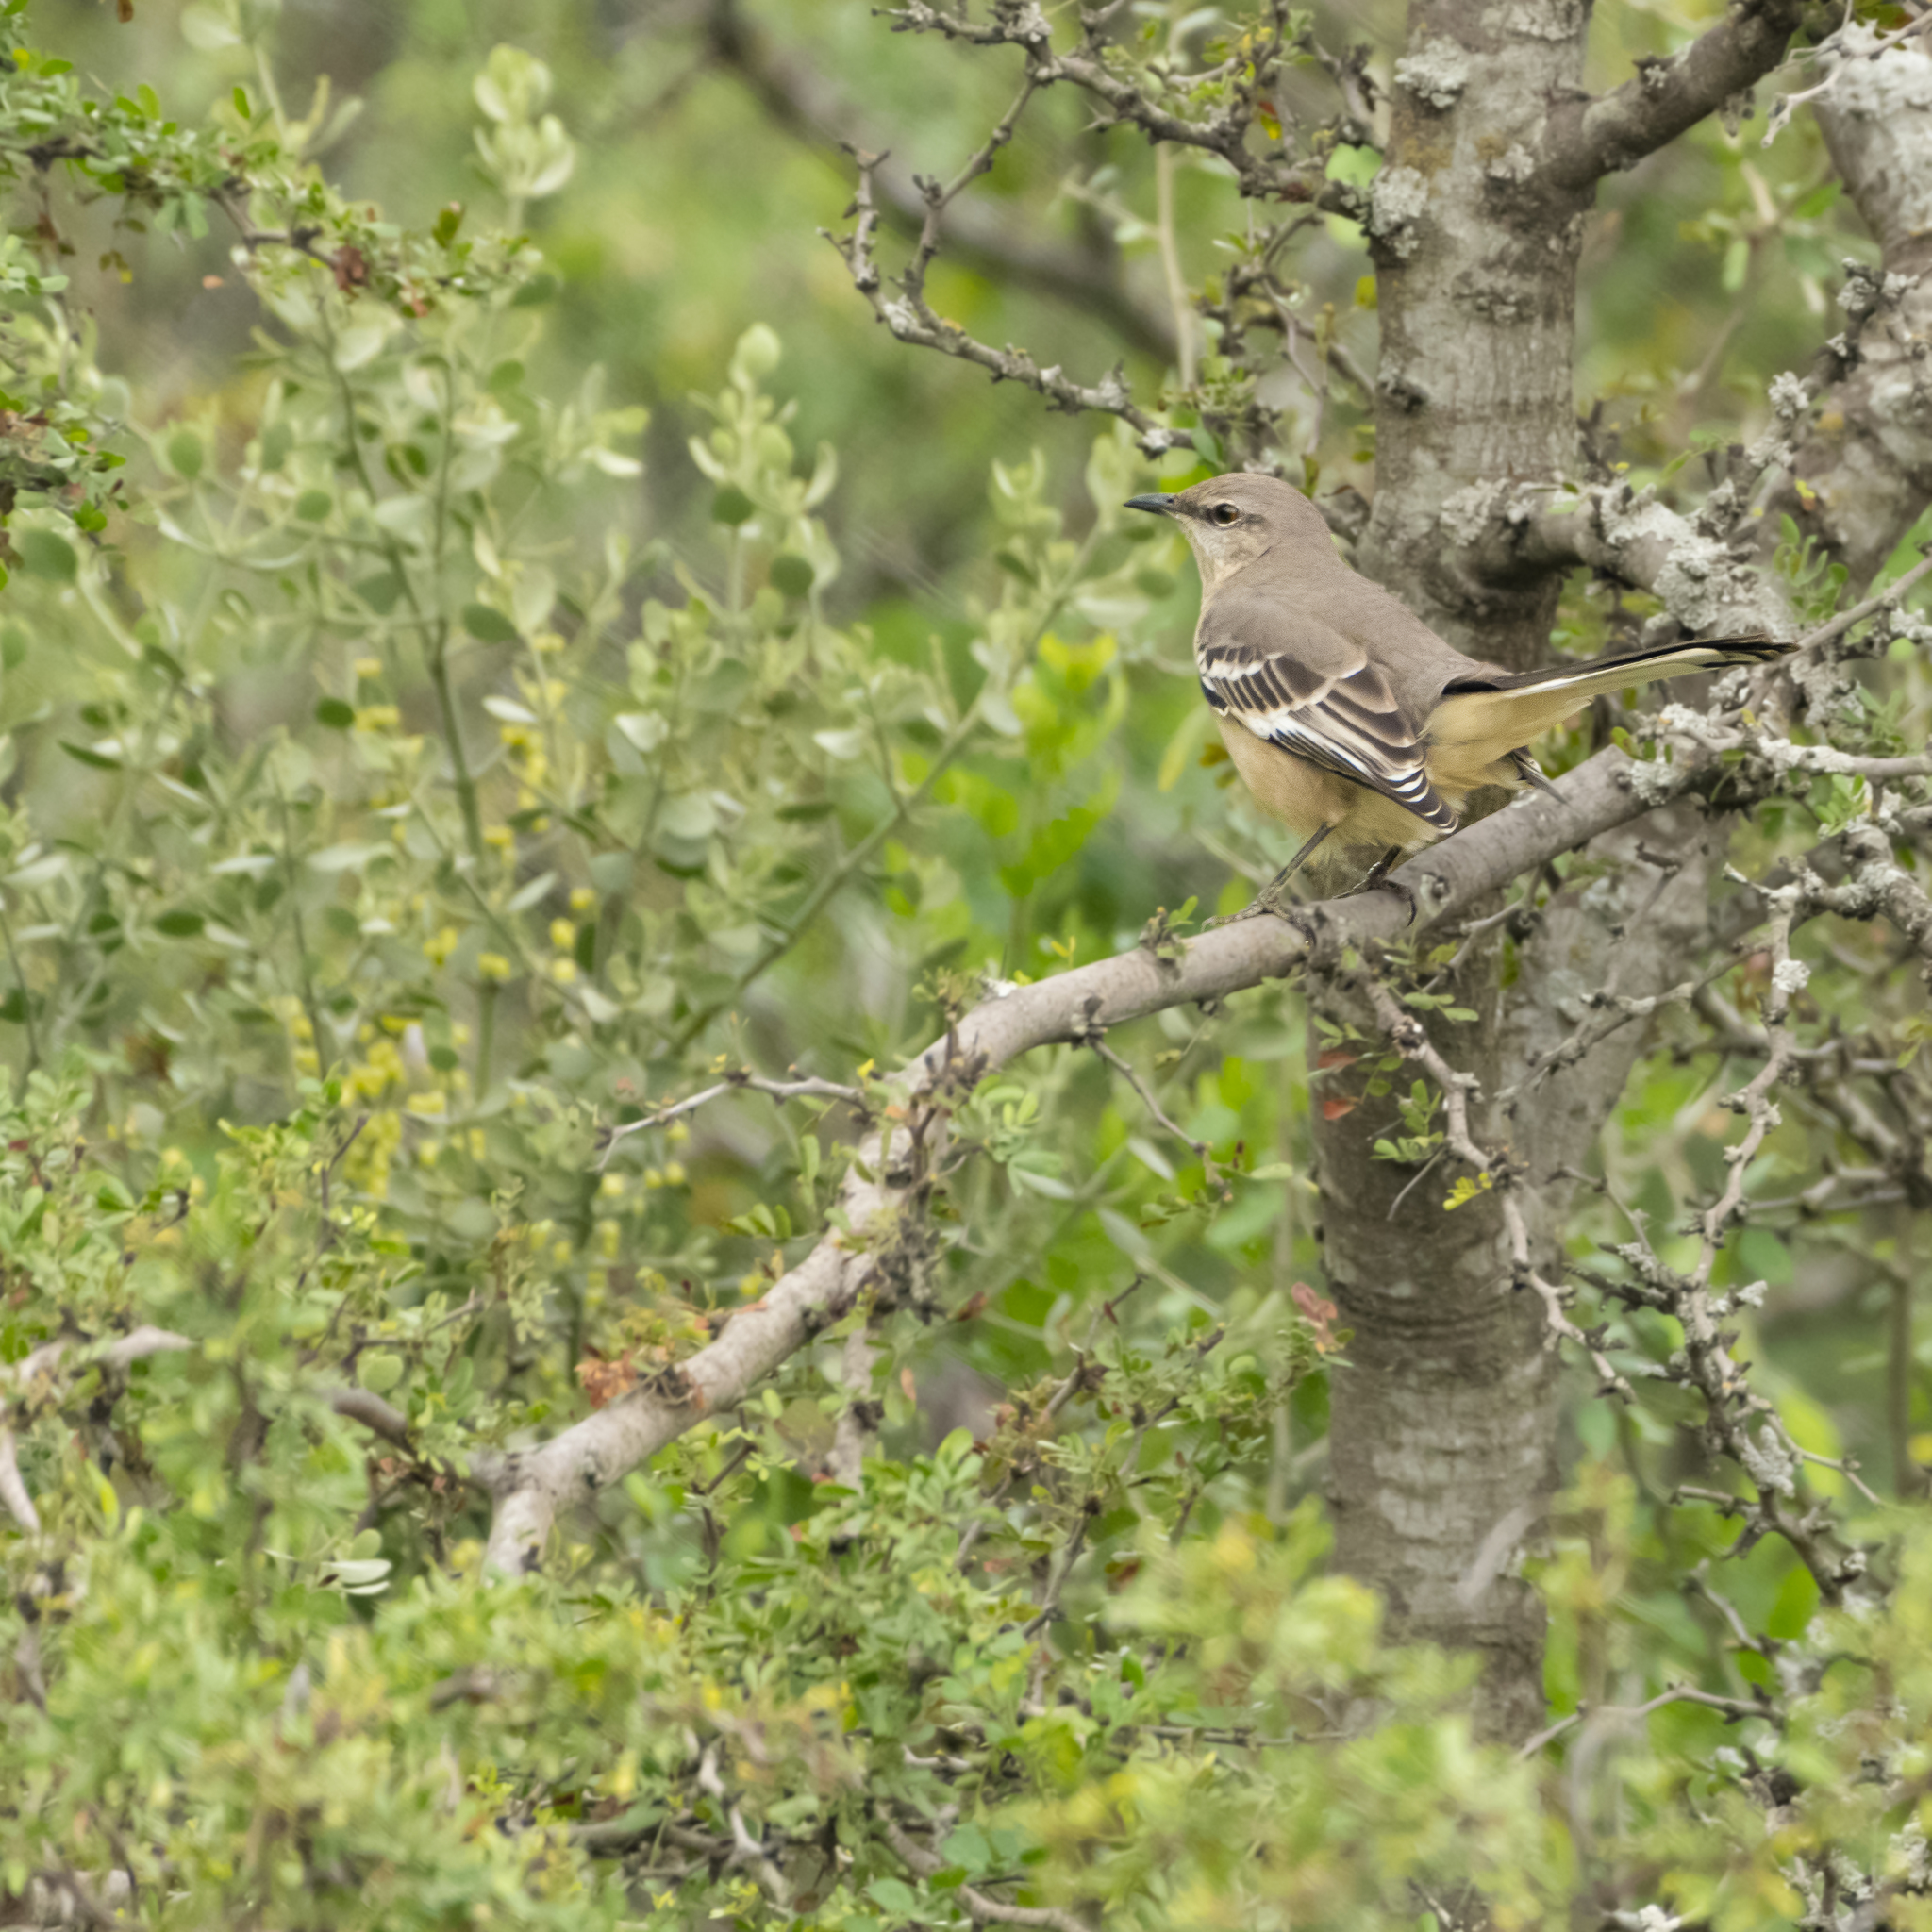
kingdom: Animalia
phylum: Chordata
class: Aves
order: Passeriformes
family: Mimidae
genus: Mimus
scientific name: Mimus polyglottos
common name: Northern mockingbird
